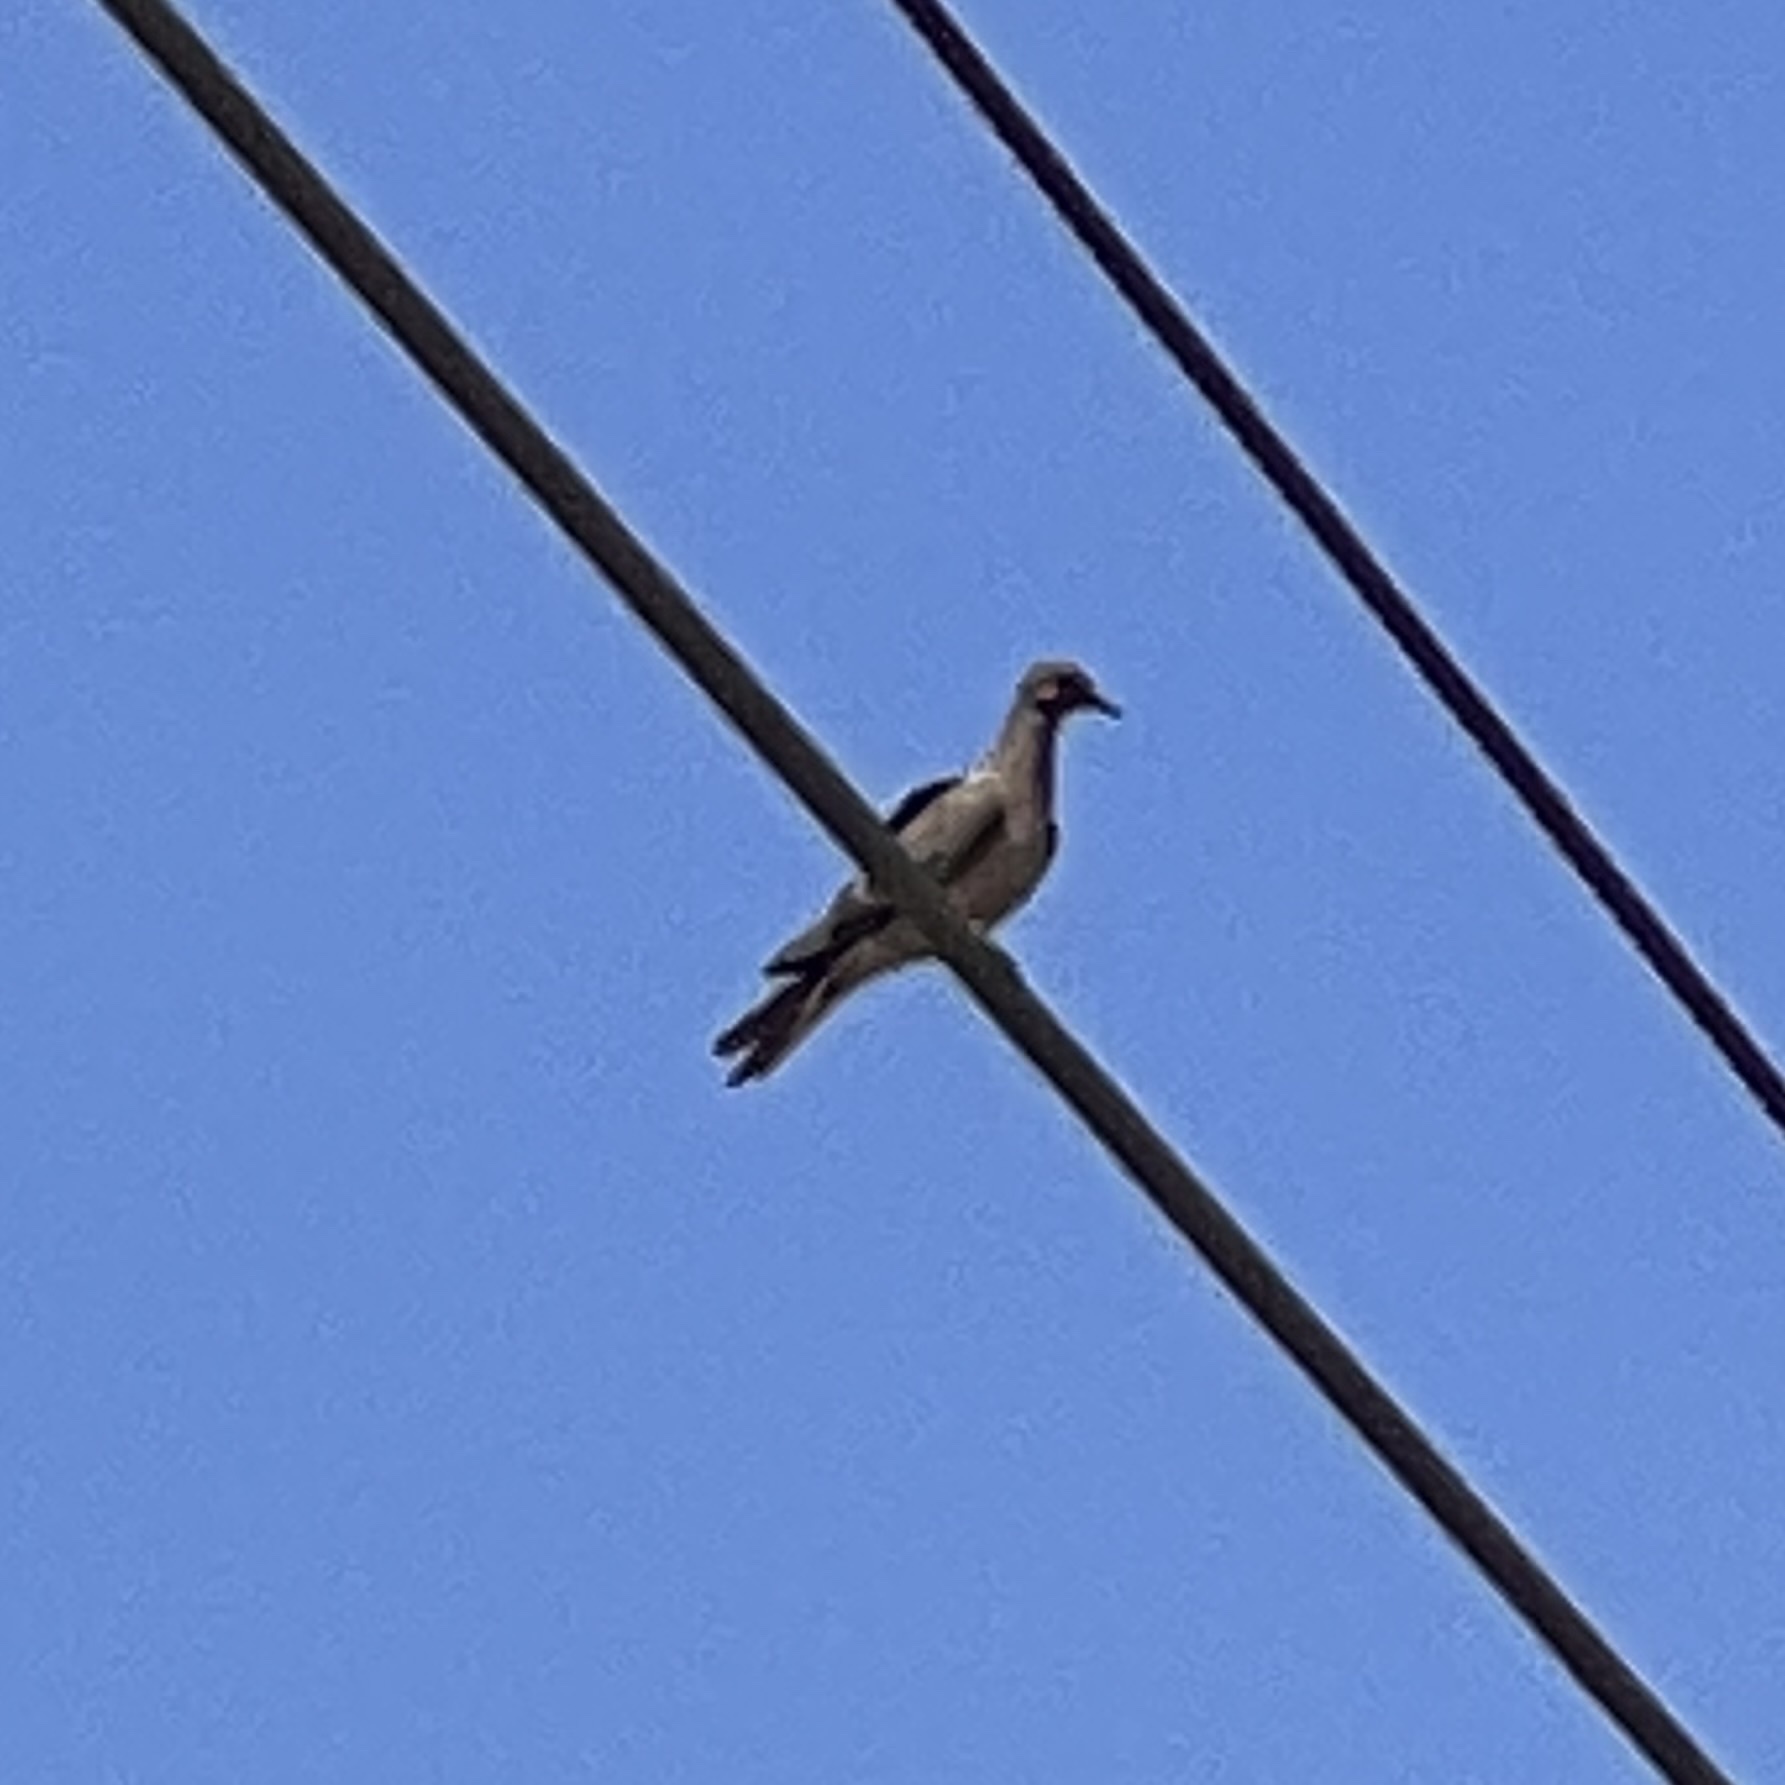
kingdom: Animalia
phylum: Chordata
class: Aves
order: Columbiformes
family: Columbidae
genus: Zenaida
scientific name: Zenaida macroura
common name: Mourning dove
